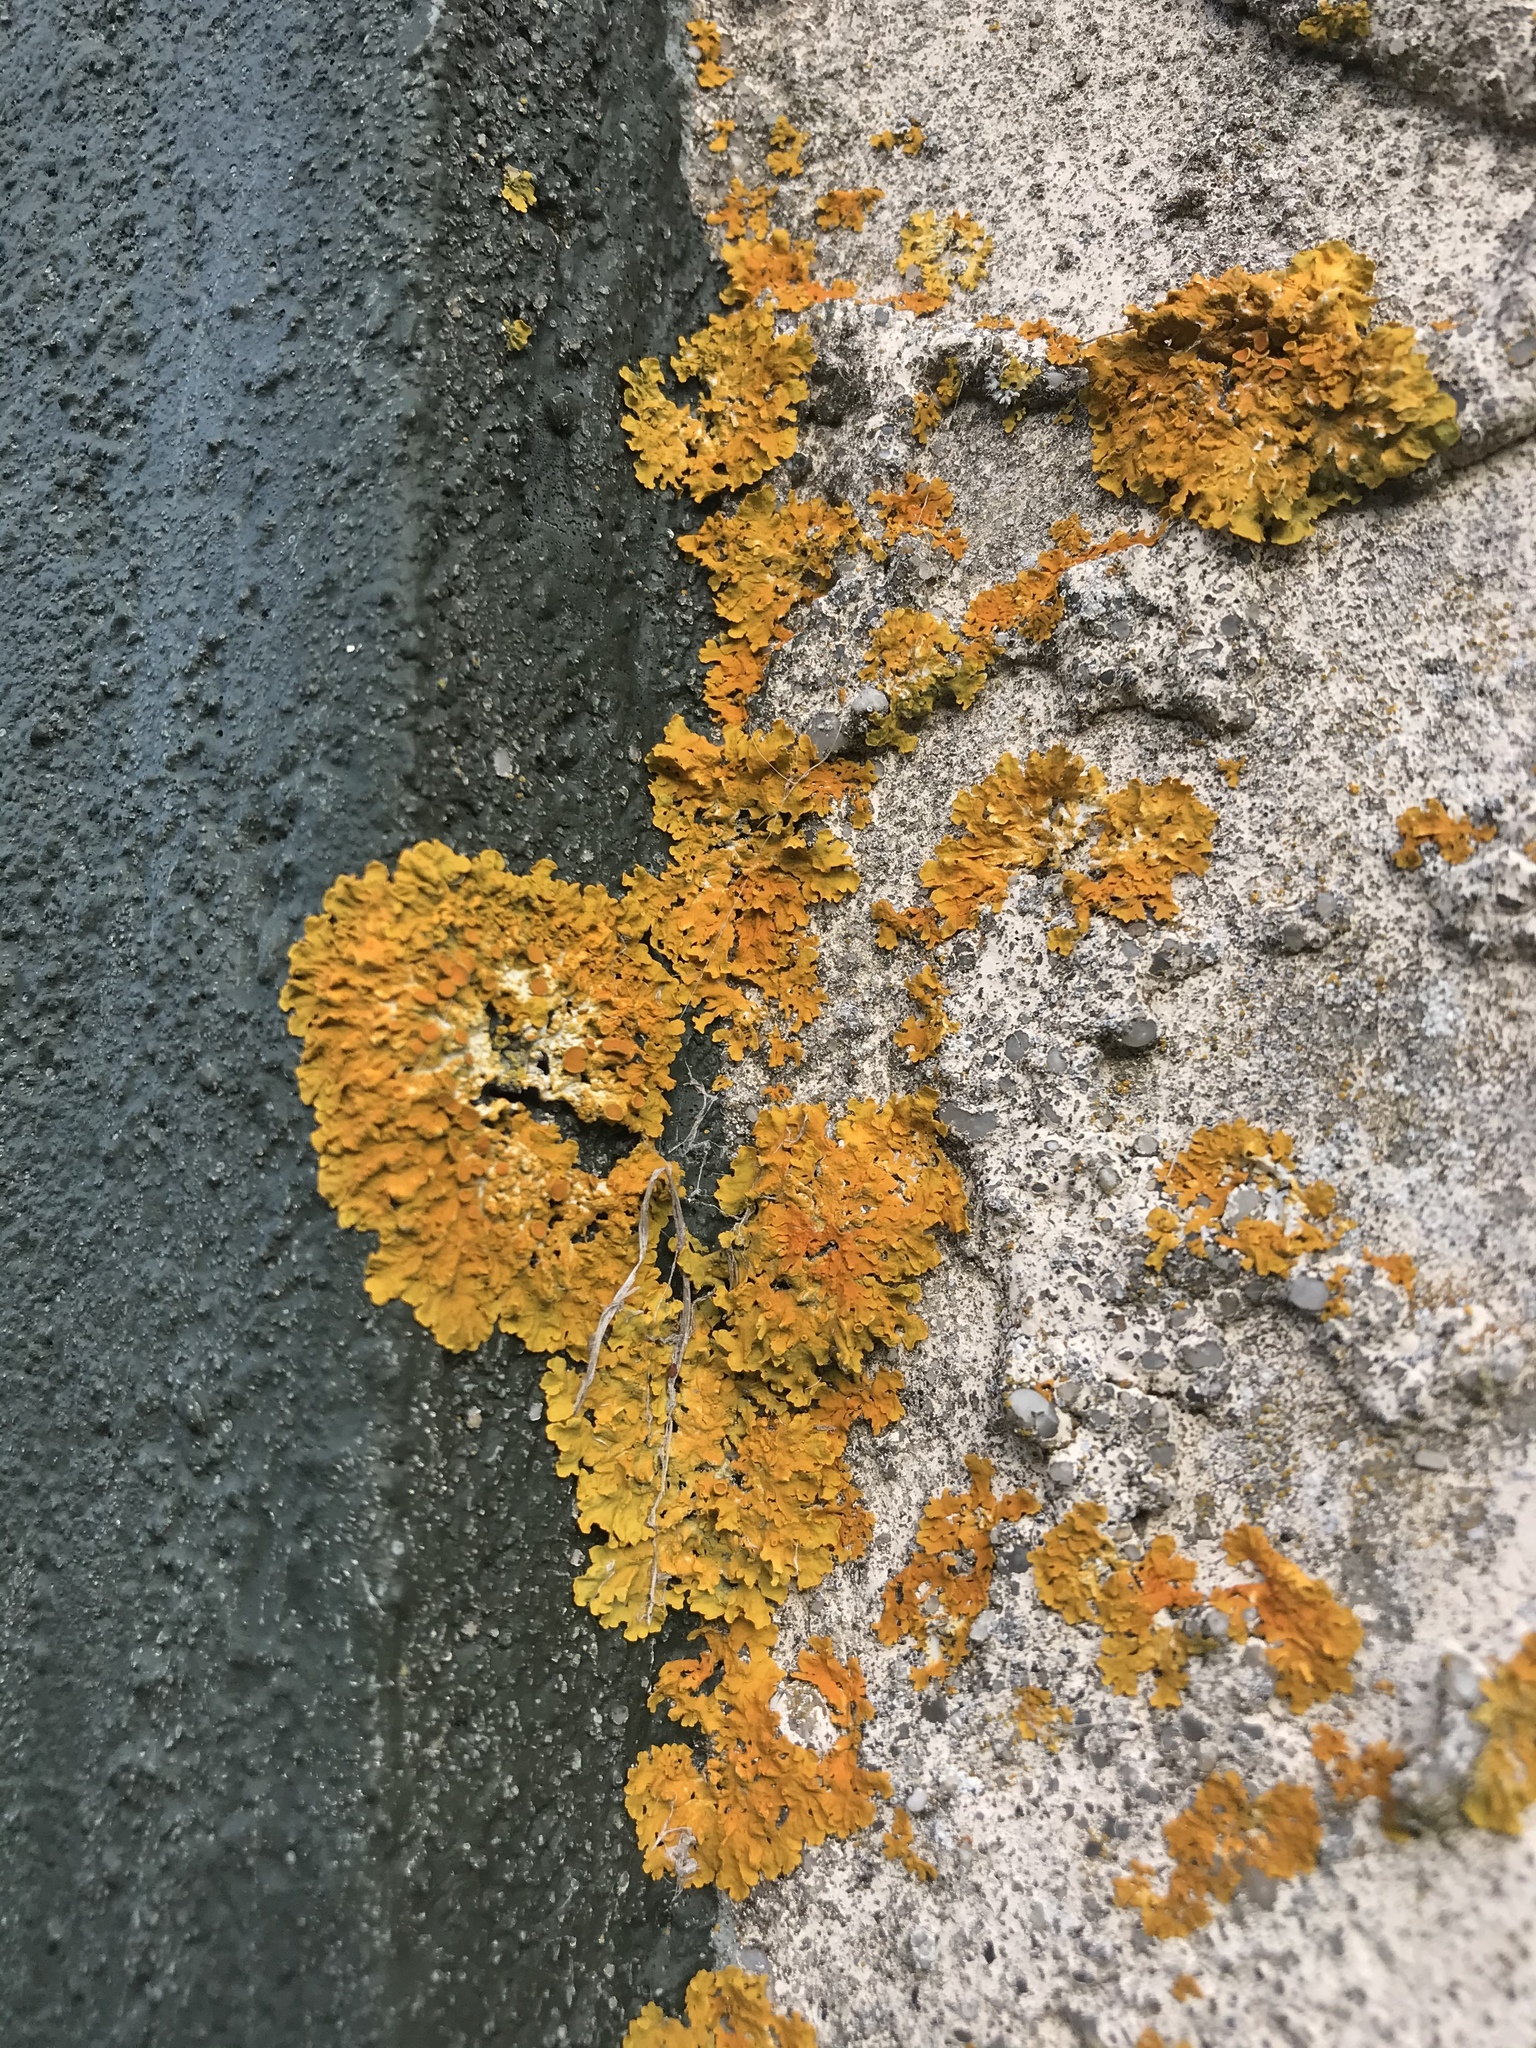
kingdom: Fungi
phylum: Ascomycota
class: Lecanoromycetes
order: Teloschistales
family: Teloschistaceae
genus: Xanthoria
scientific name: Xanthoria parietina
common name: Common orange lichen
